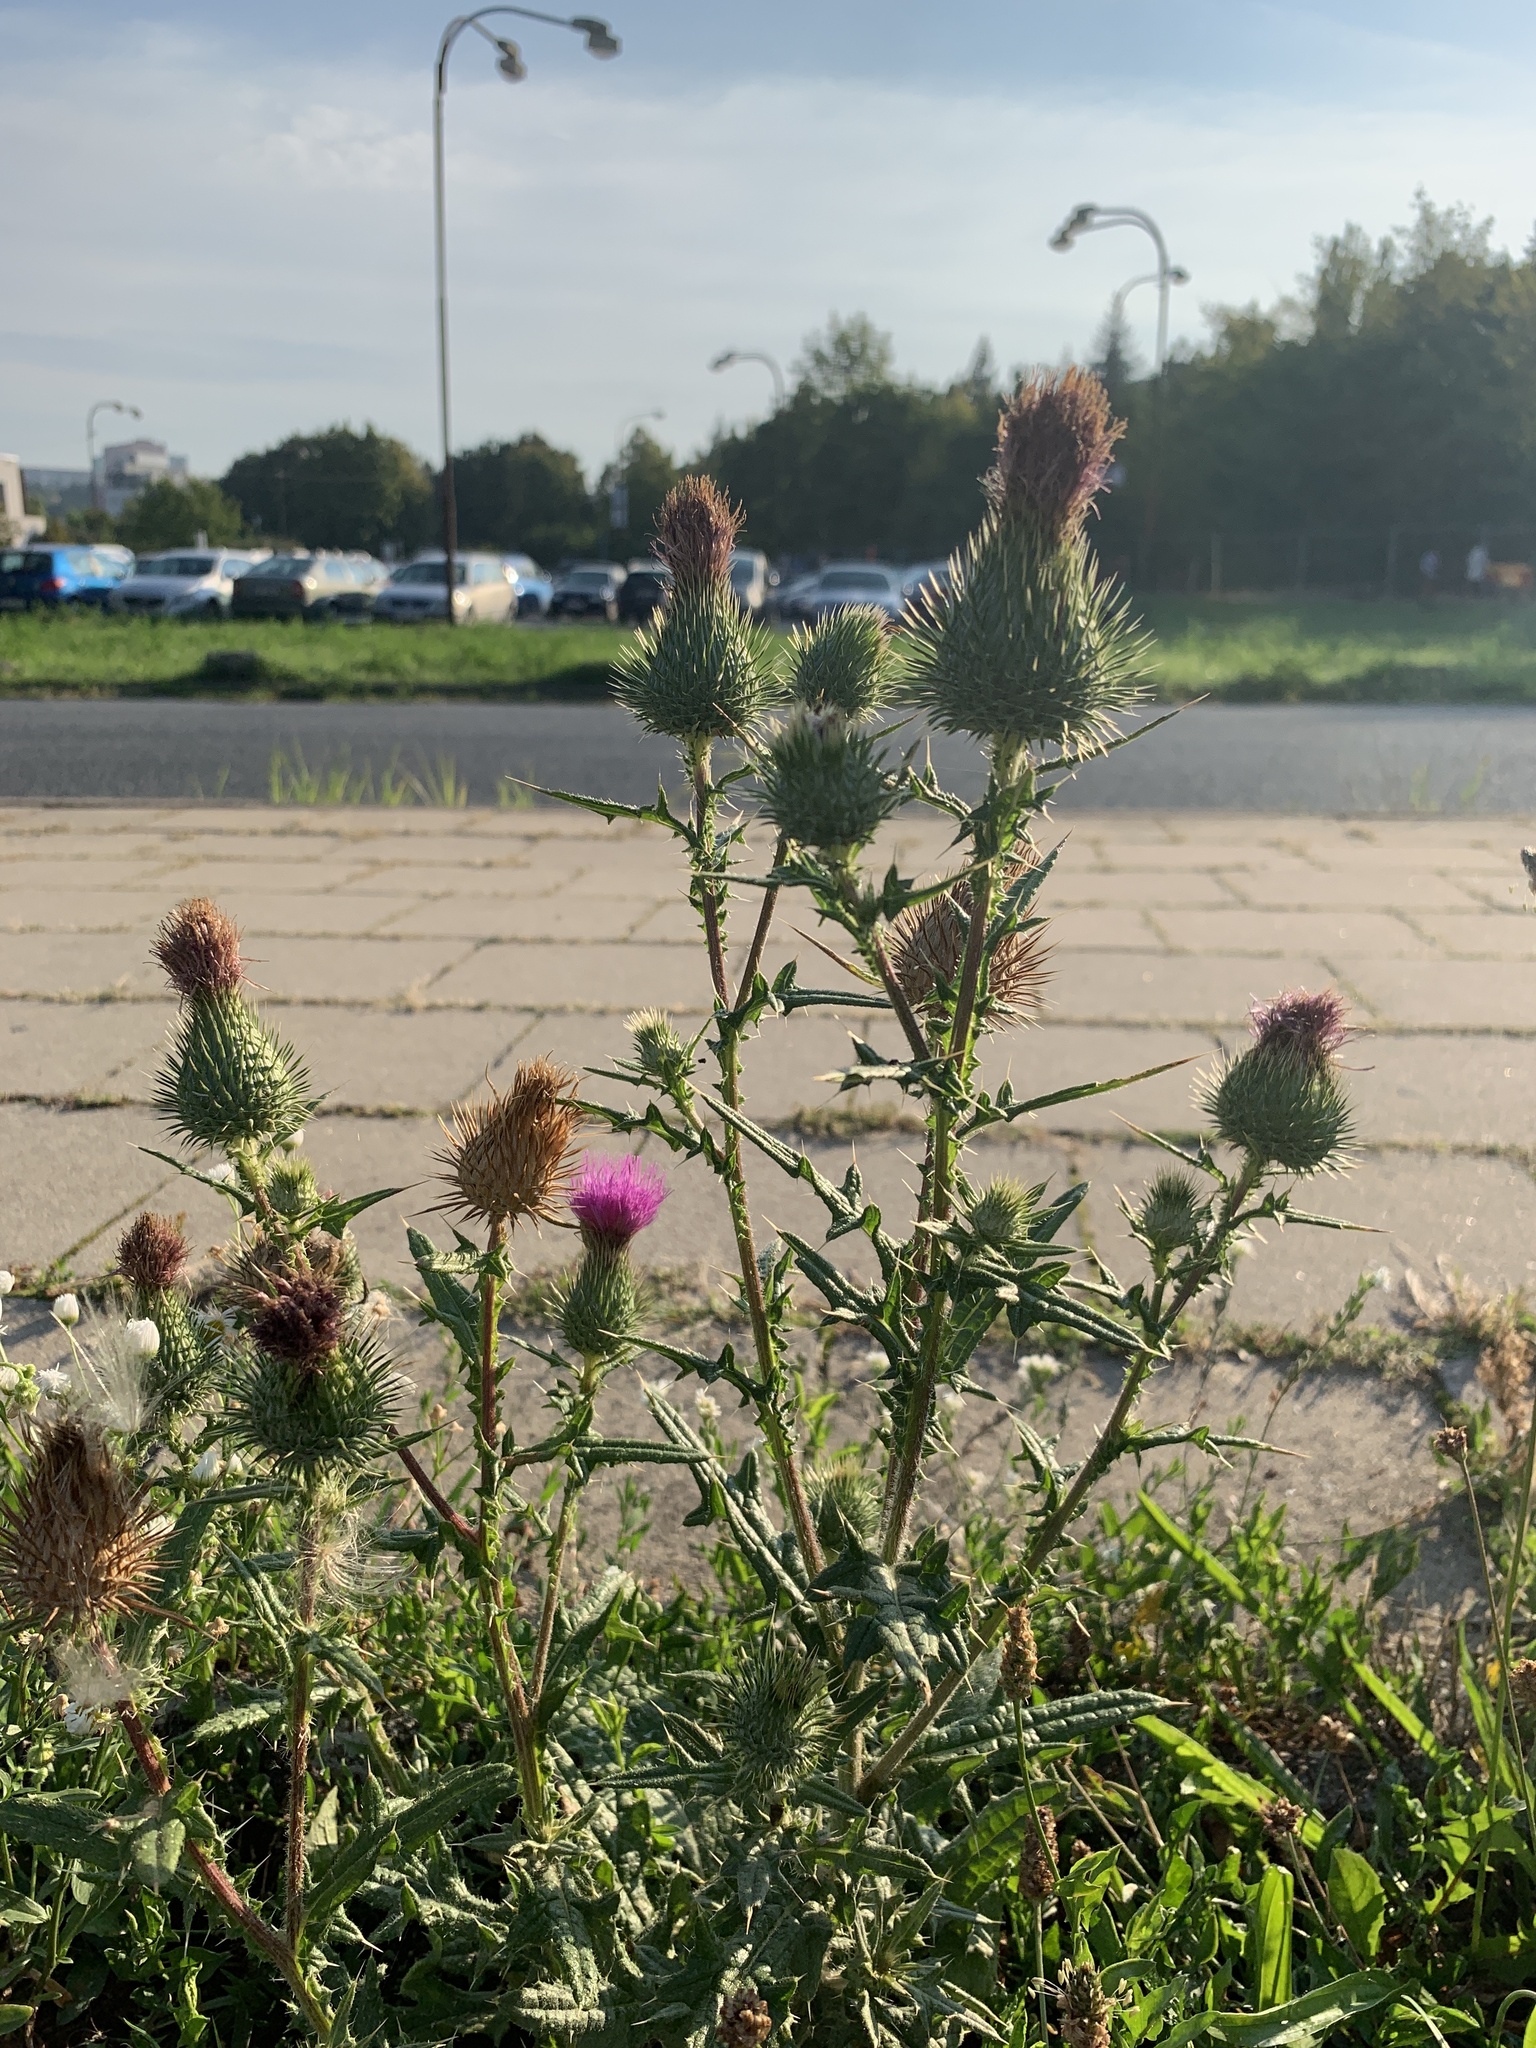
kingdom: Plantae
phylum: Tracheophyta
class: Magnoliopsida
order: Asterales
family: Asteraceae
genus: Cirsium
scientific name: Cirsium vulgare
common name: Bull thistle
